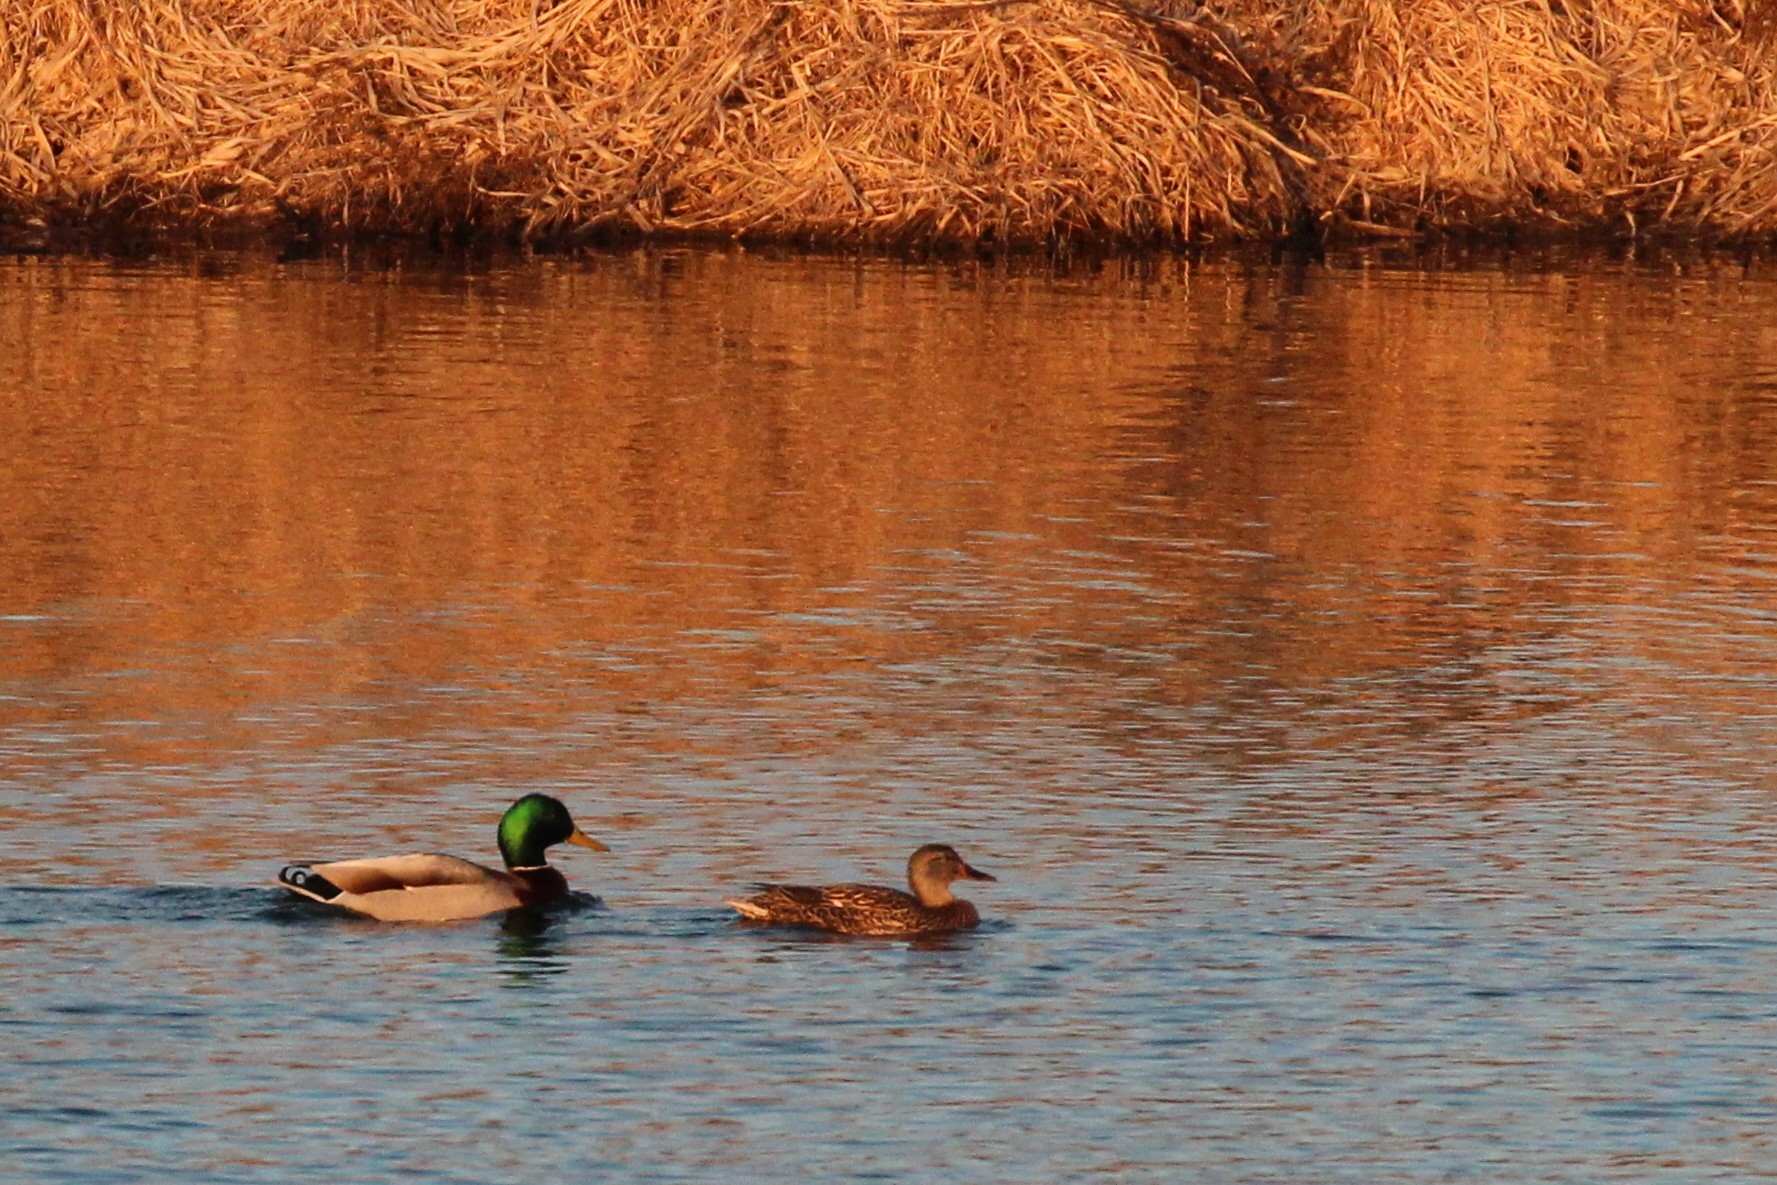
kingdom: Animalia
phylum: Chordata
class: Aves
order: Anseriformes
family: Anatidae
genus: Anas
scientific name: Anas platyrhynchos
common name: Mallard
